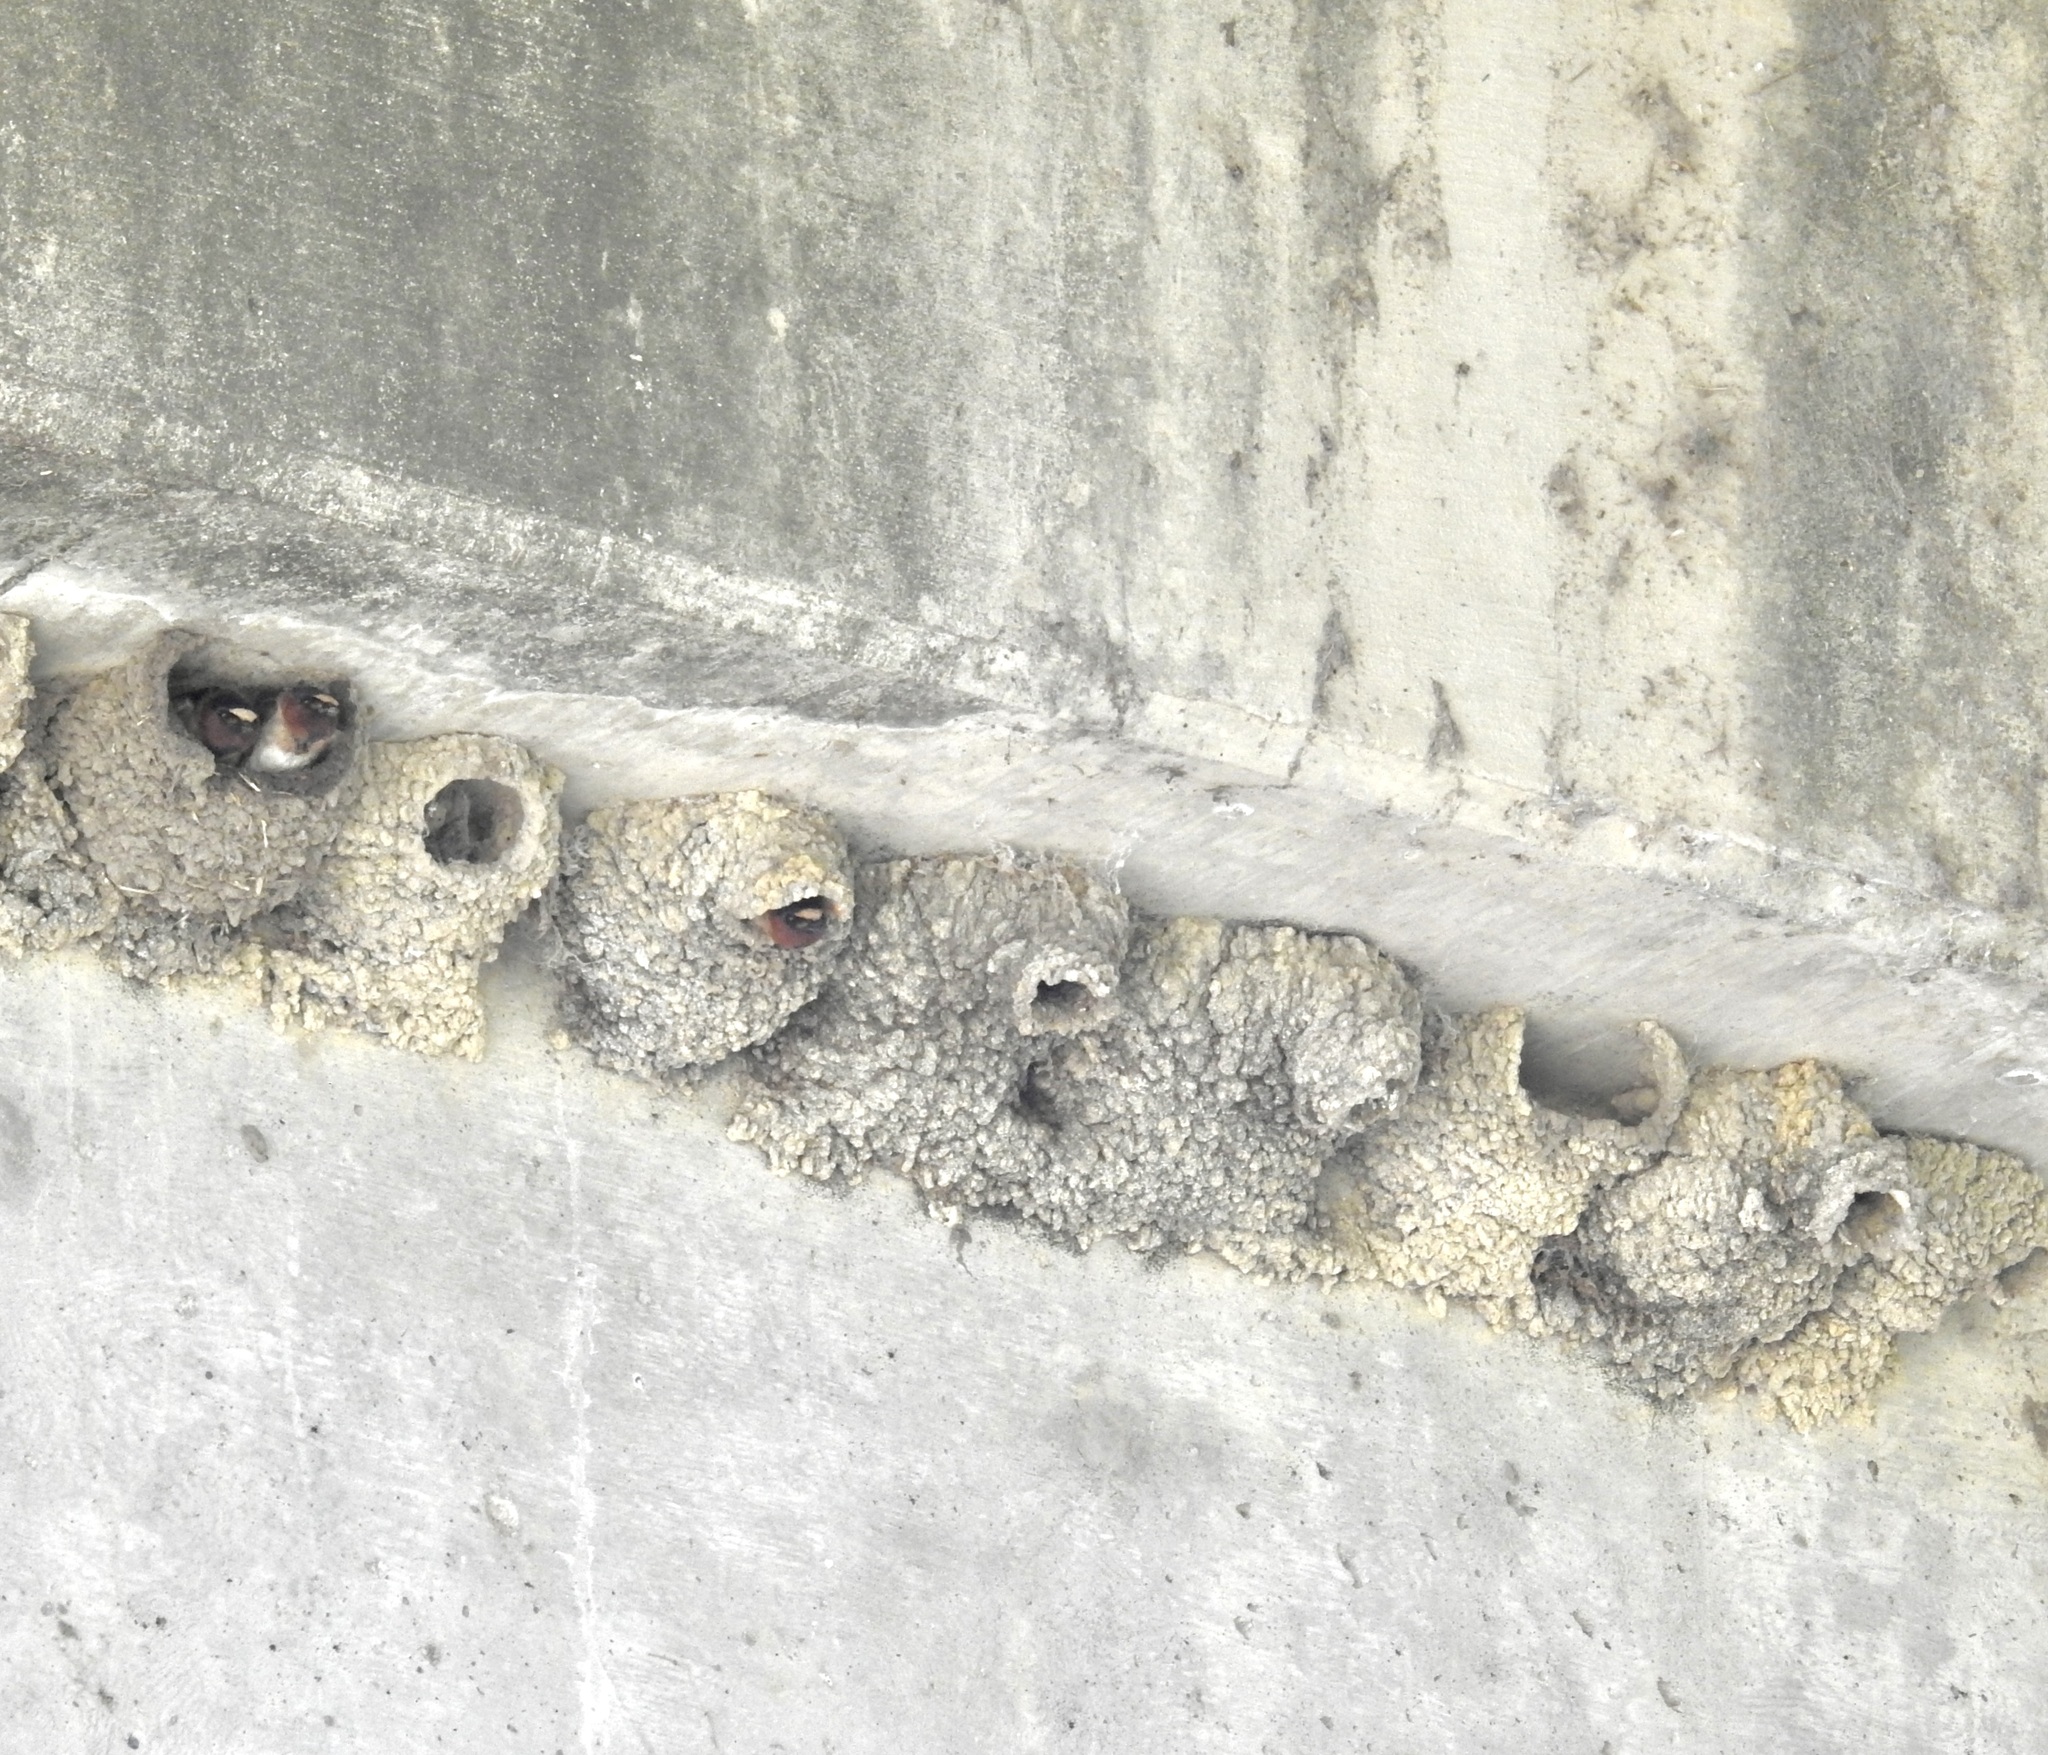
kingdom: Animalia
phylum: Chordata
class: Aves
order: Passeriformes
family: Hirundinidae
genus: Petrochelidon
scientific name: Petrochelidon pyrrhonota
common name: American cliff swallow
